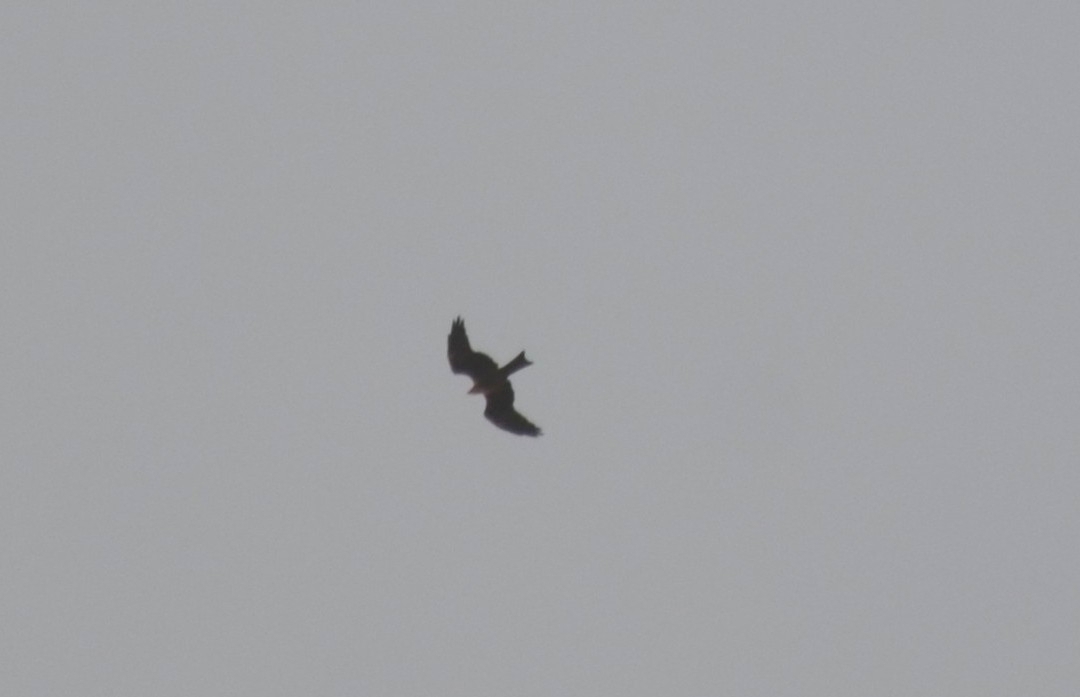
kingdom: Animalia
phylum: Chordata
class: Aves
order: Accipitriformes
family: Accipitridae
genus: Milvus
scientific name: Milvus migrans
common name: Black kite
